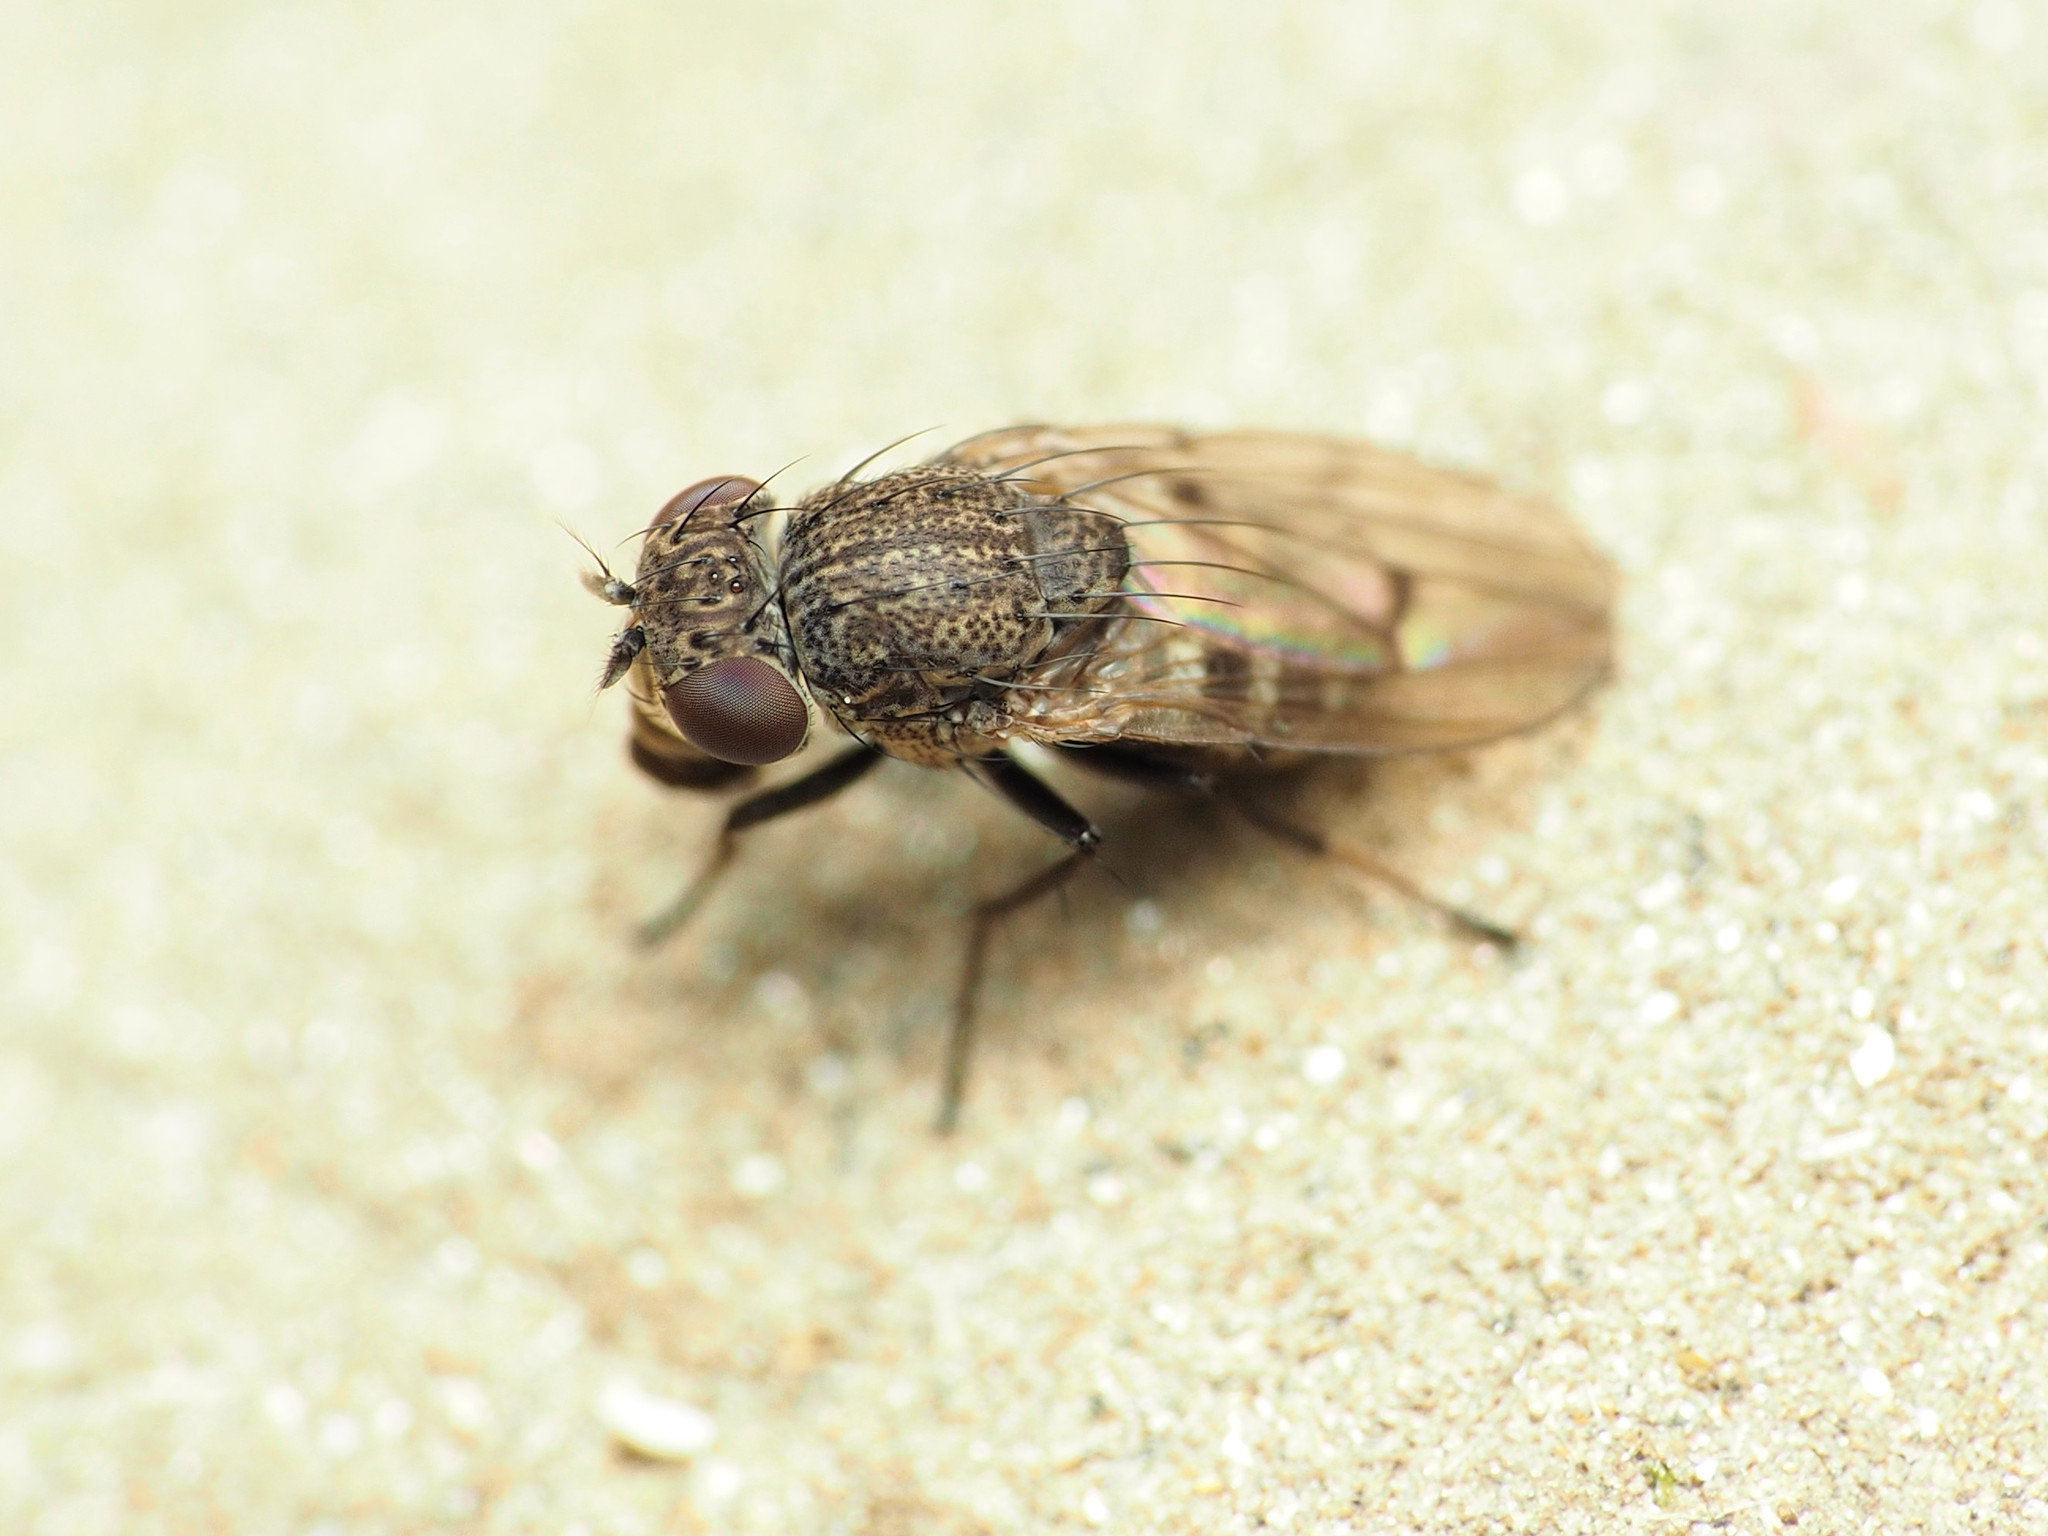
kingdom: Animalia
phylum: Arthropoda
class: Insecta
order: Diptera
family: Ephydridae
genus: Paralimna
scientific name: Paralimna punctipennis
